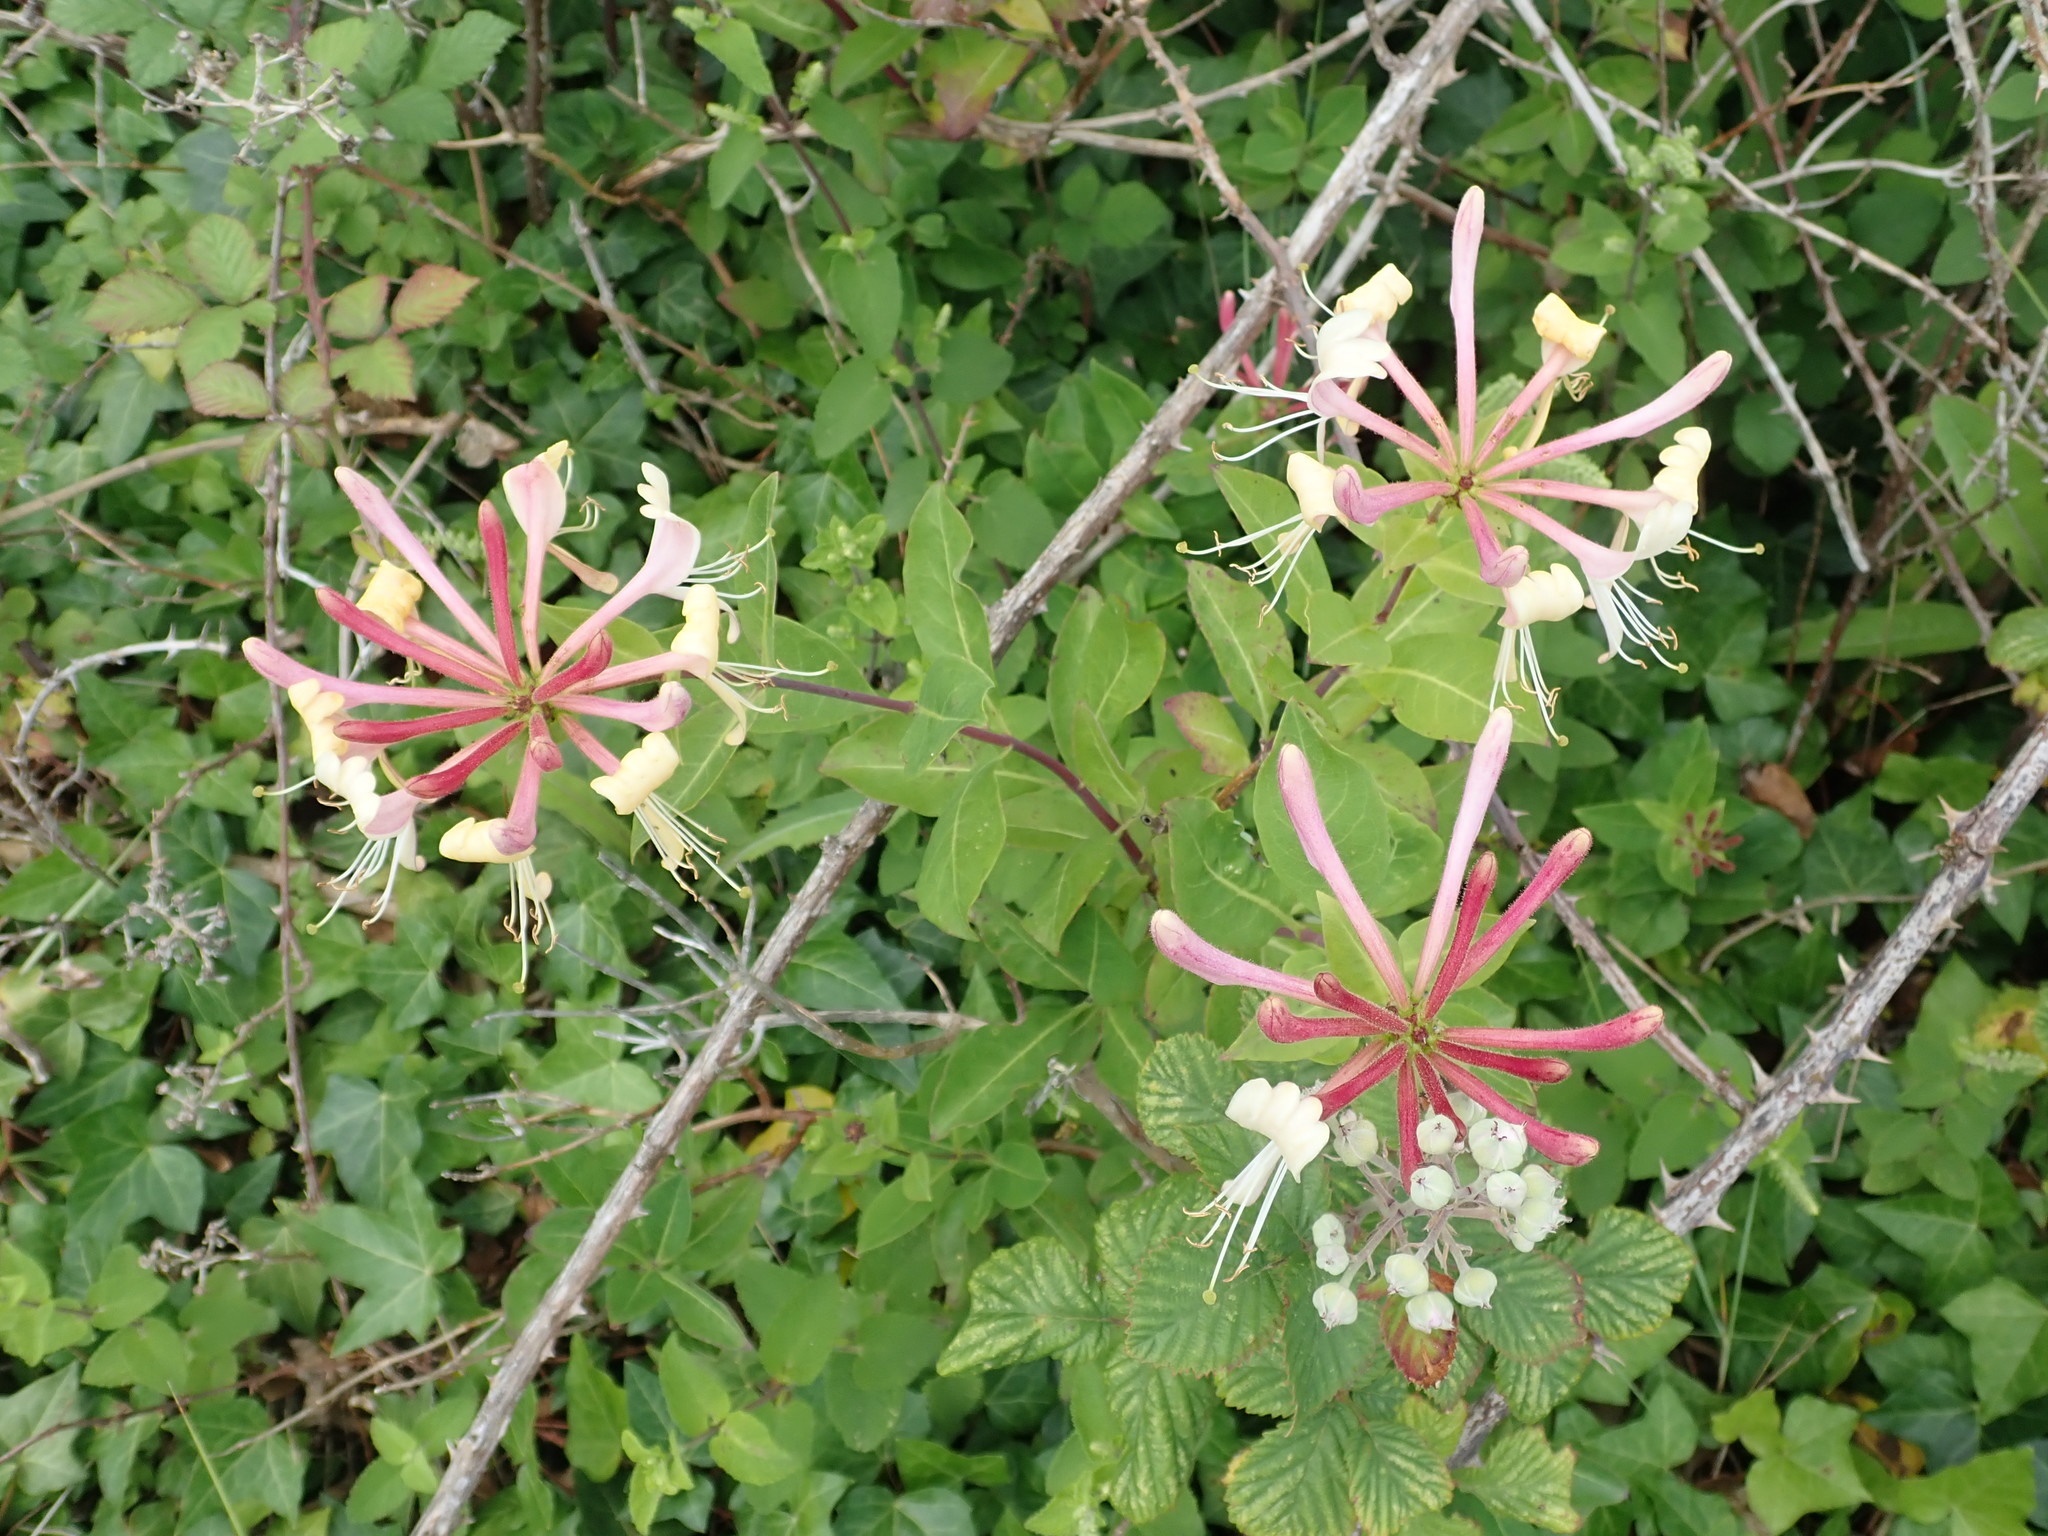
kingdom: Plantae
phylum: Tracheophyta
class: Magnoliopsida
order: Dipsacales
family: Caprifoliaceae
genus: Lonicera
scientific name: Lonicera periclymenum
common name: European honeysuckle
